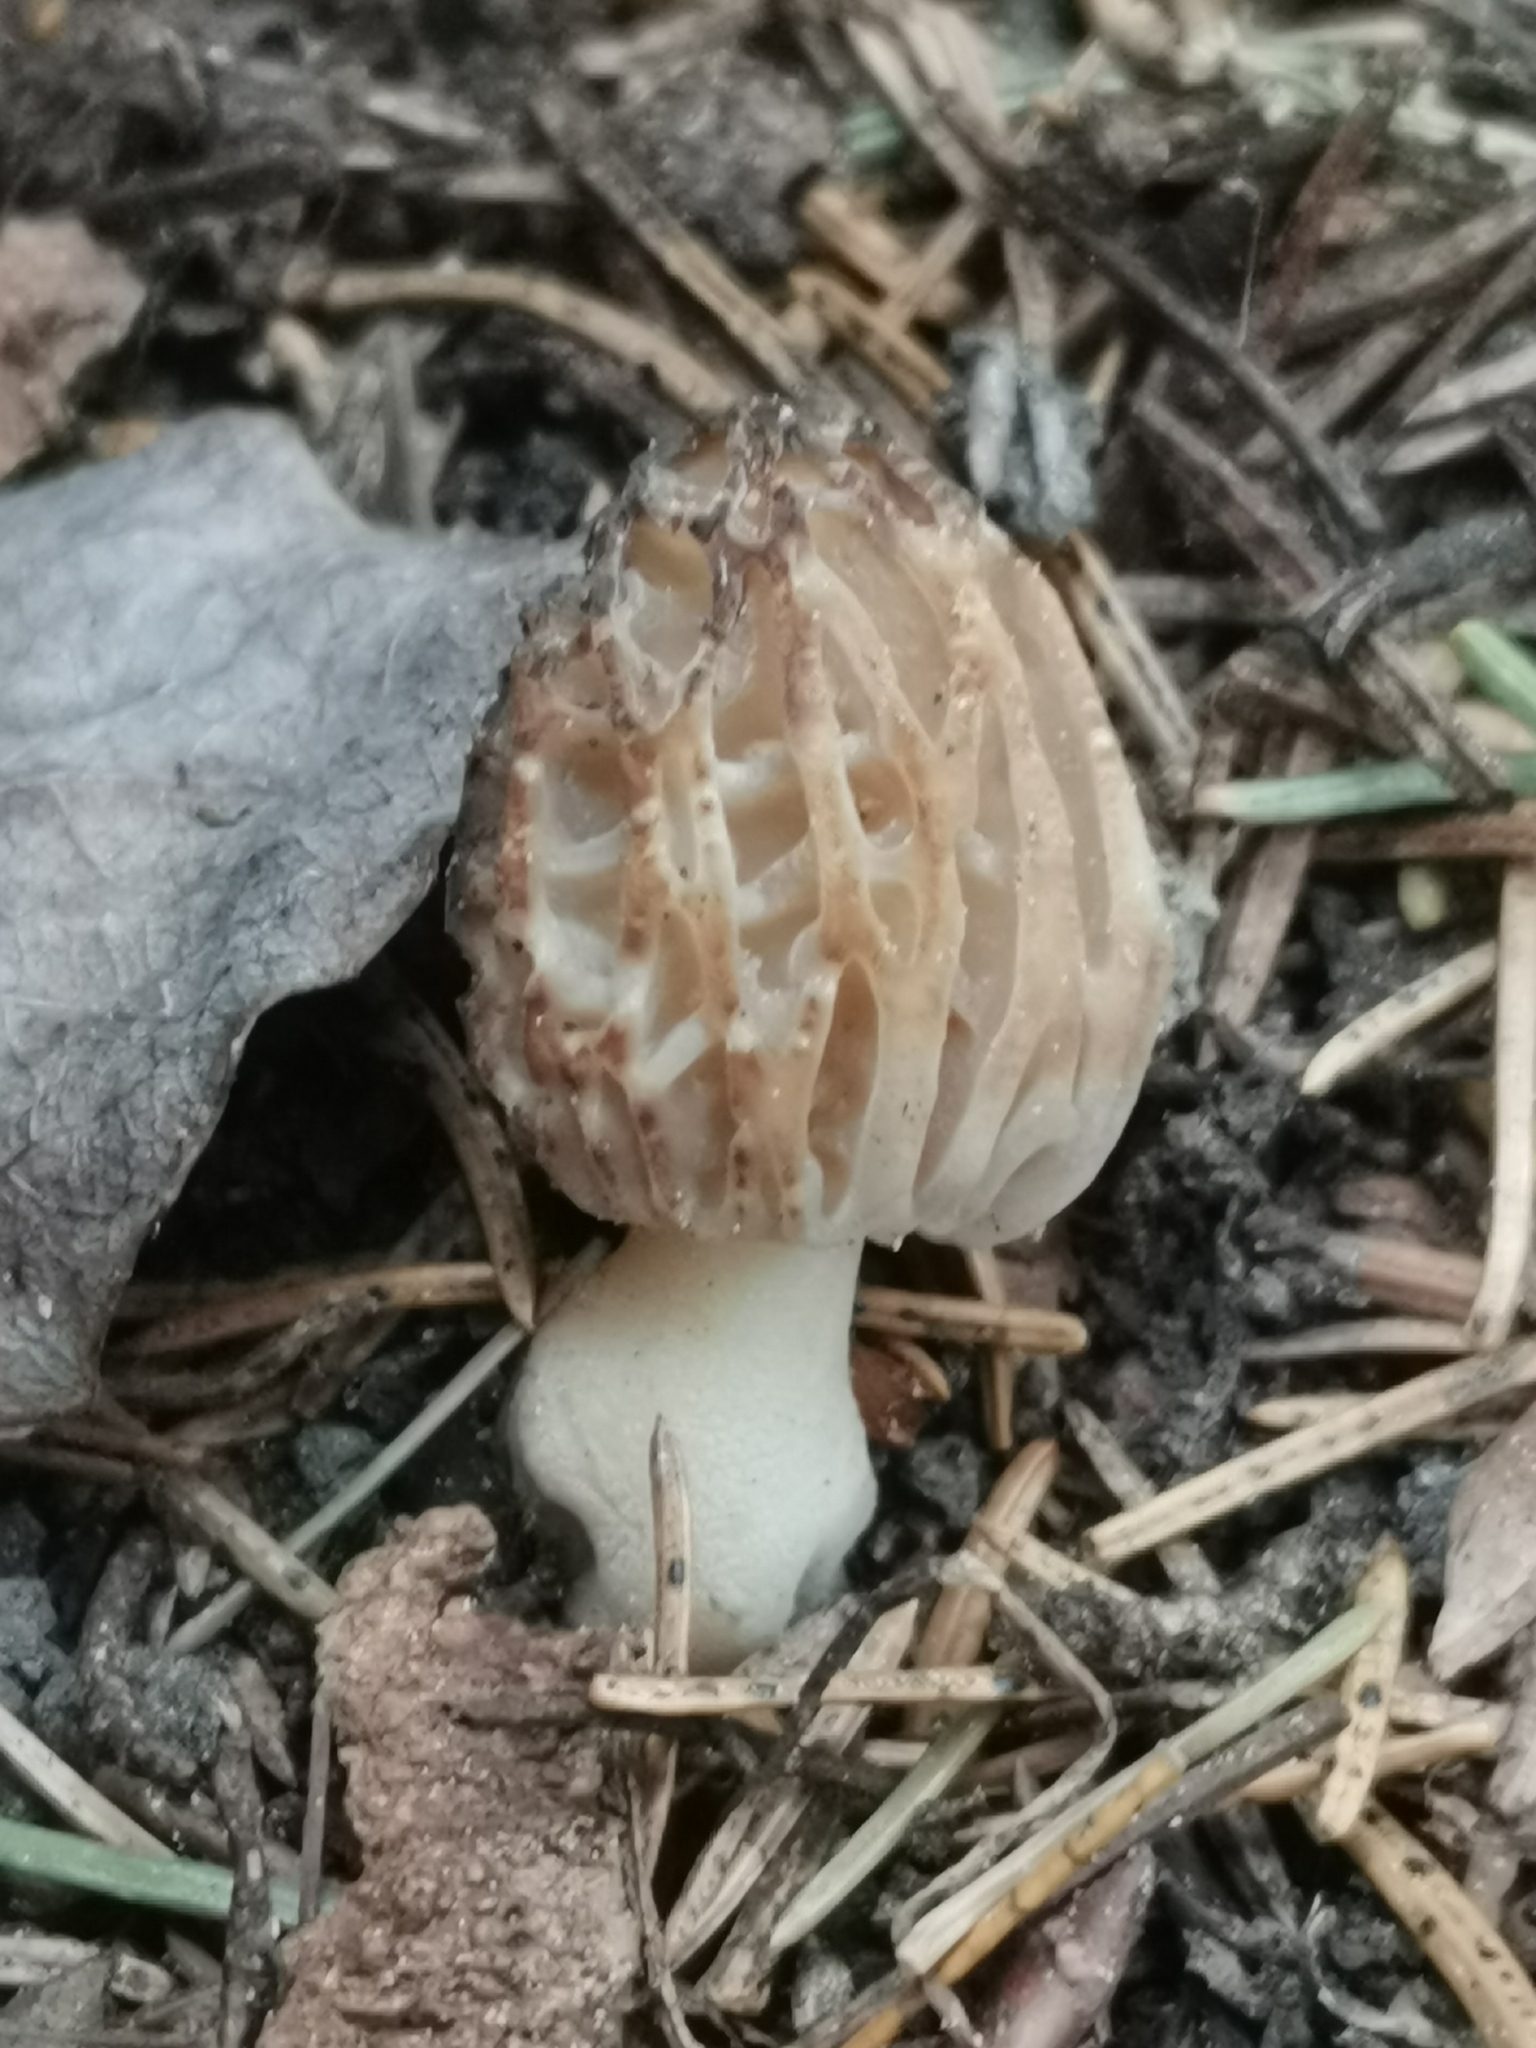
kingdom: Fungi
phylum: Ascomycota
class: Pezizomycetes
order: Pezizales
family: Morchellaceae
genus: Morchella
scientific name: Morchella esculenta
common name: Morel
